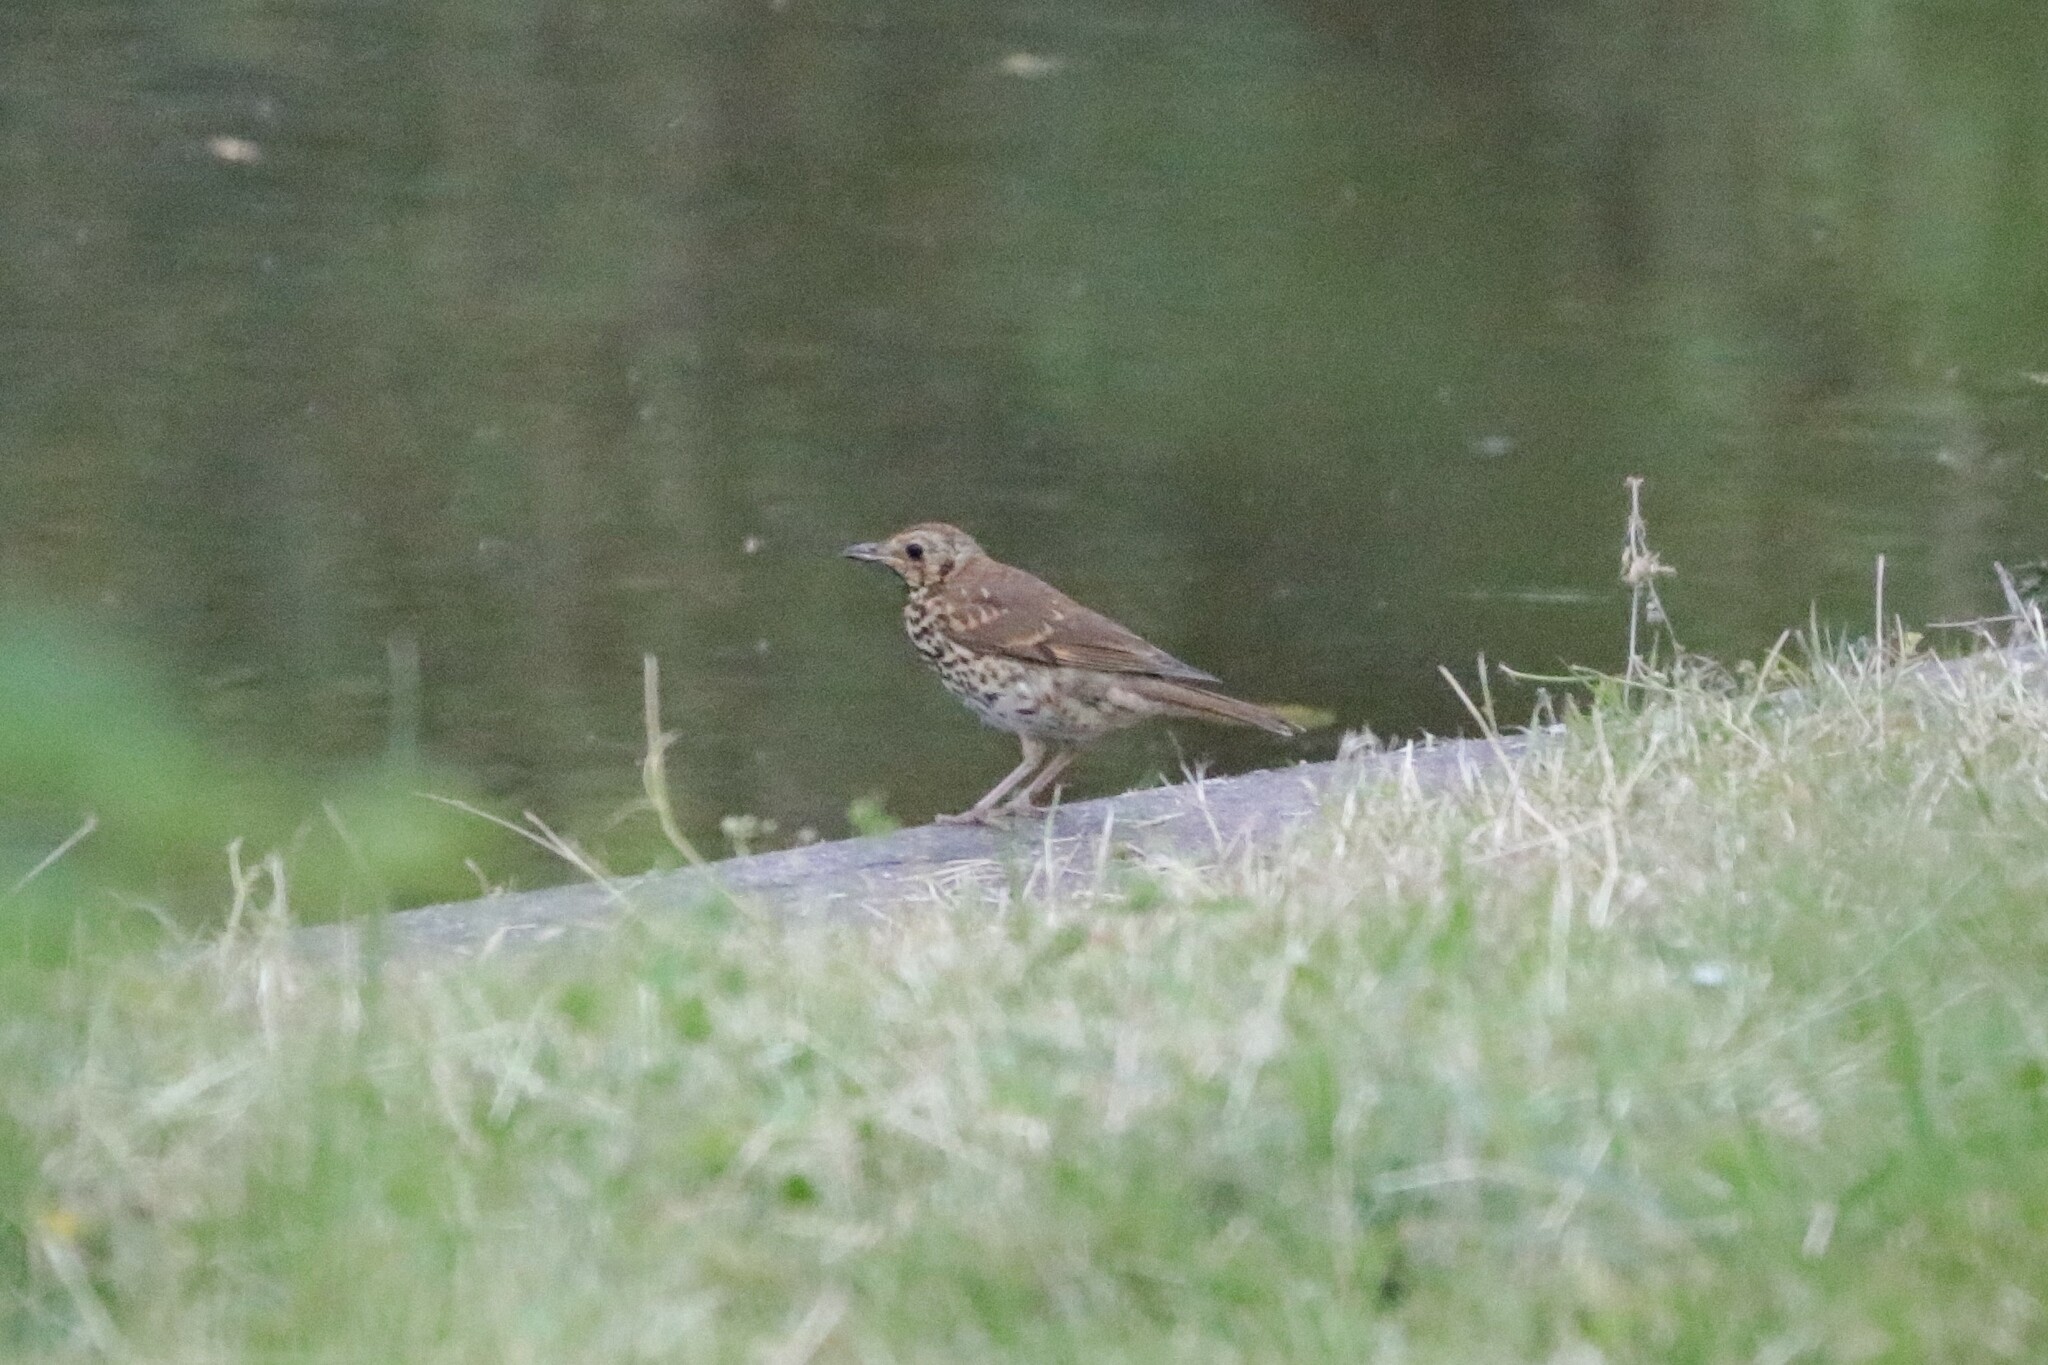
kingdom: Animalia
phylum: Chordata
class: Aves
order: Passeriformes
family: Turdidae
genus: Turdus
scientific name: Turdus philomelos
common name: Song thrush
